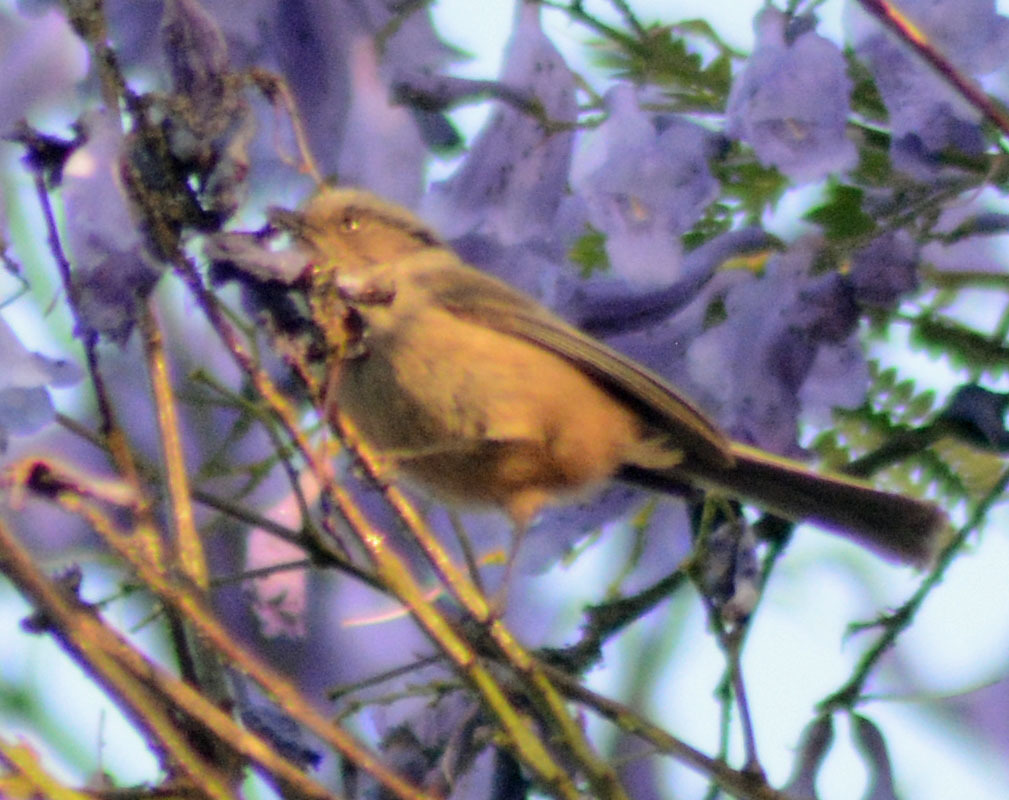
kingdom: Animalia
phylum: Chordata
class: Aves
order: Passeriformes
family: Aegithalidae
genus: Psaltriparus
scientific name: Psaltriparus minimus
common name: American bushtit
